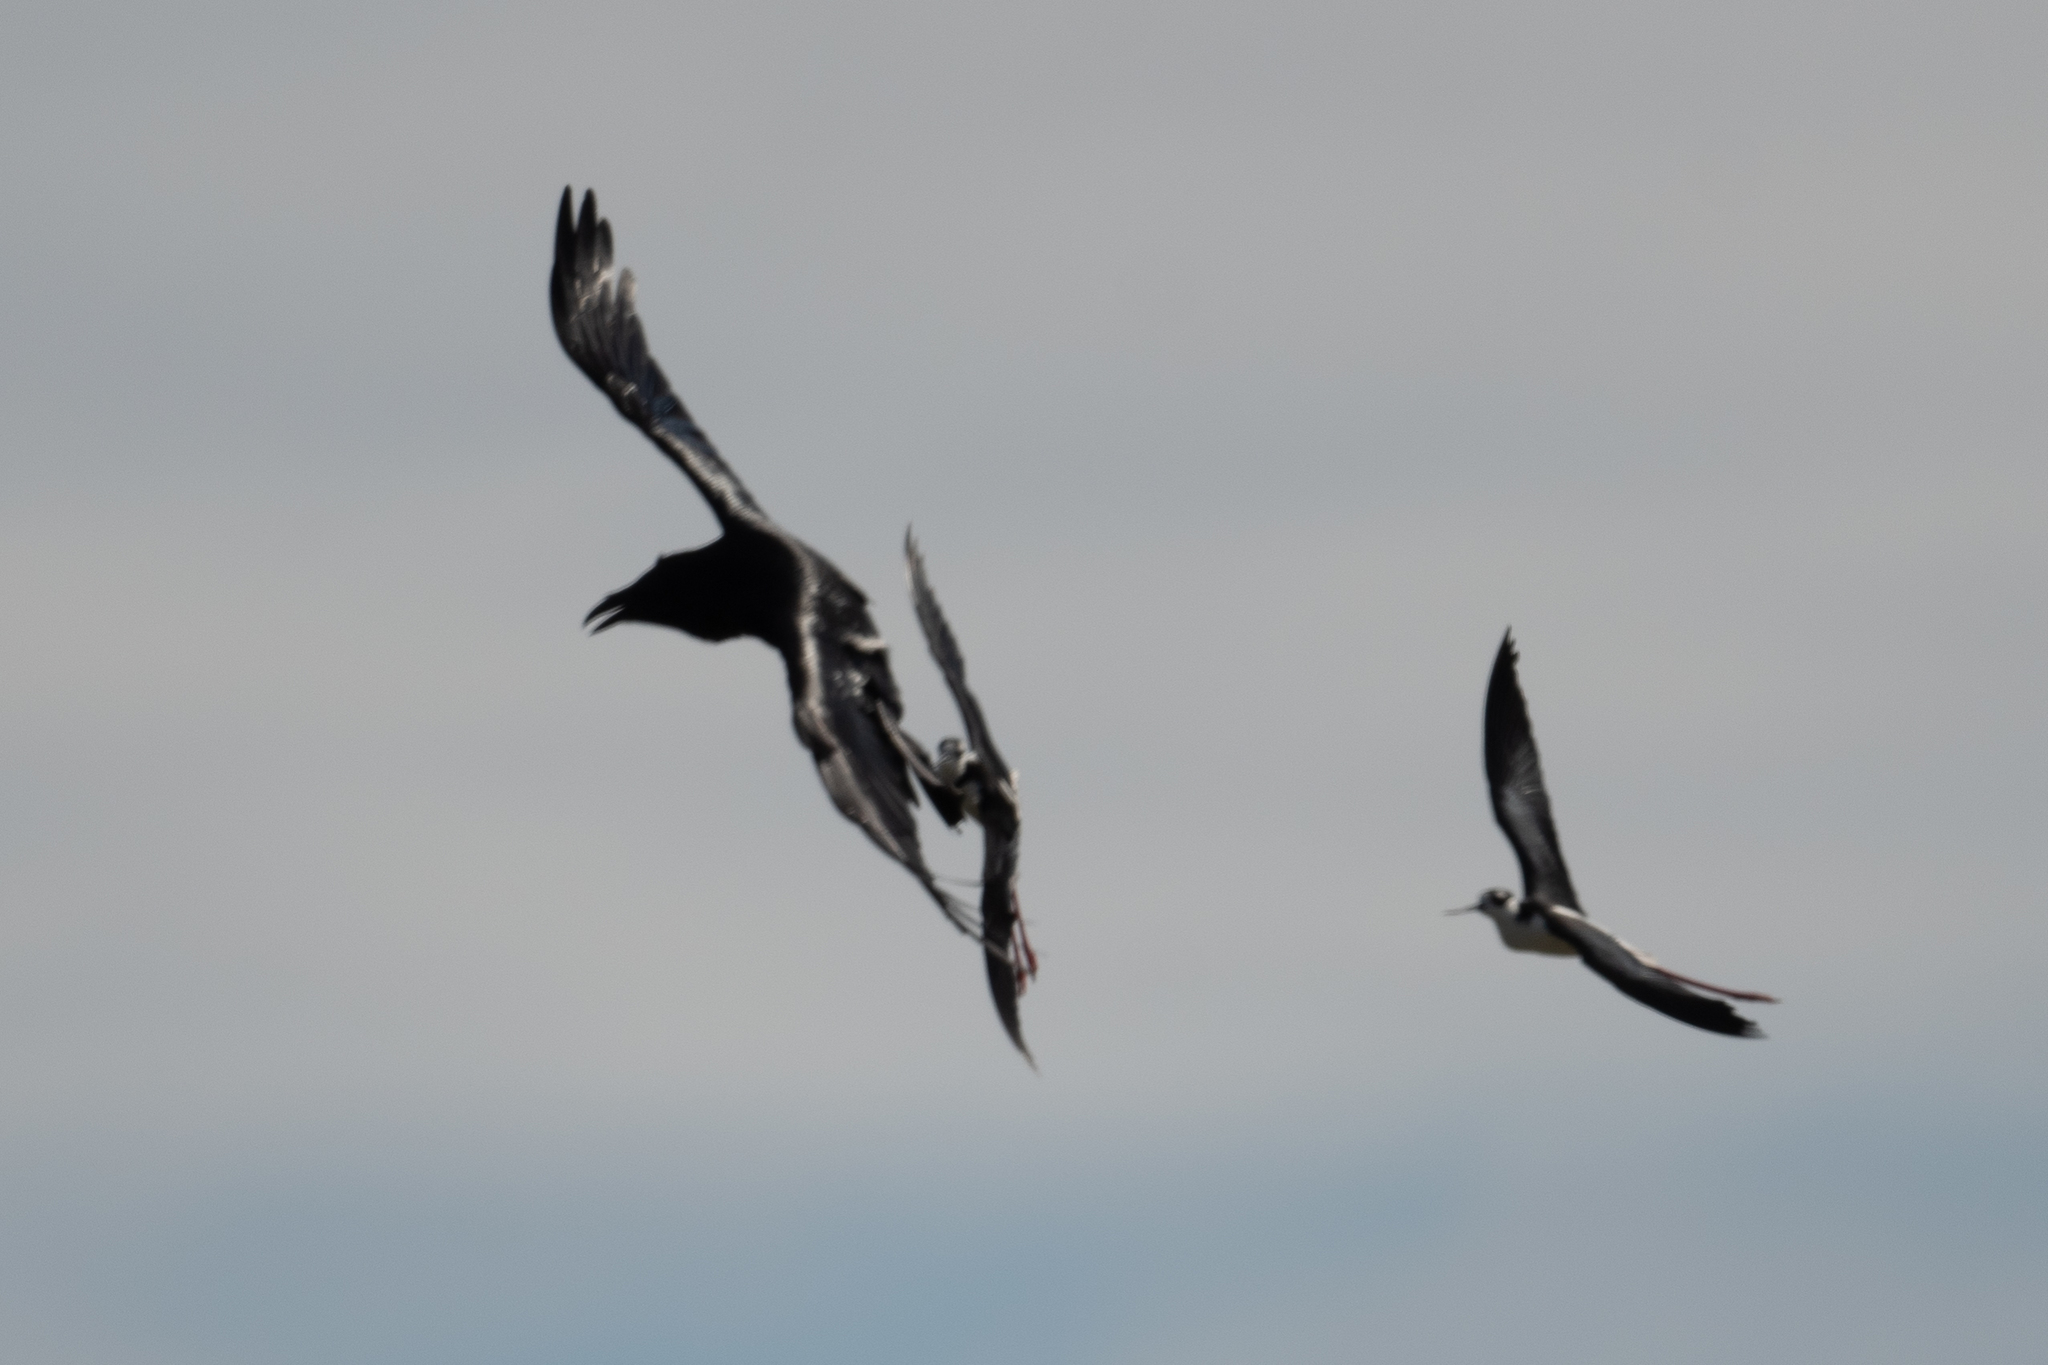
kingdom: Animalia
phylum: Chordata
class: Aves
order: Passeriformes
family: Corvidae
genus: Corvus
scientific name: Corvus corax
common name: Common raven
